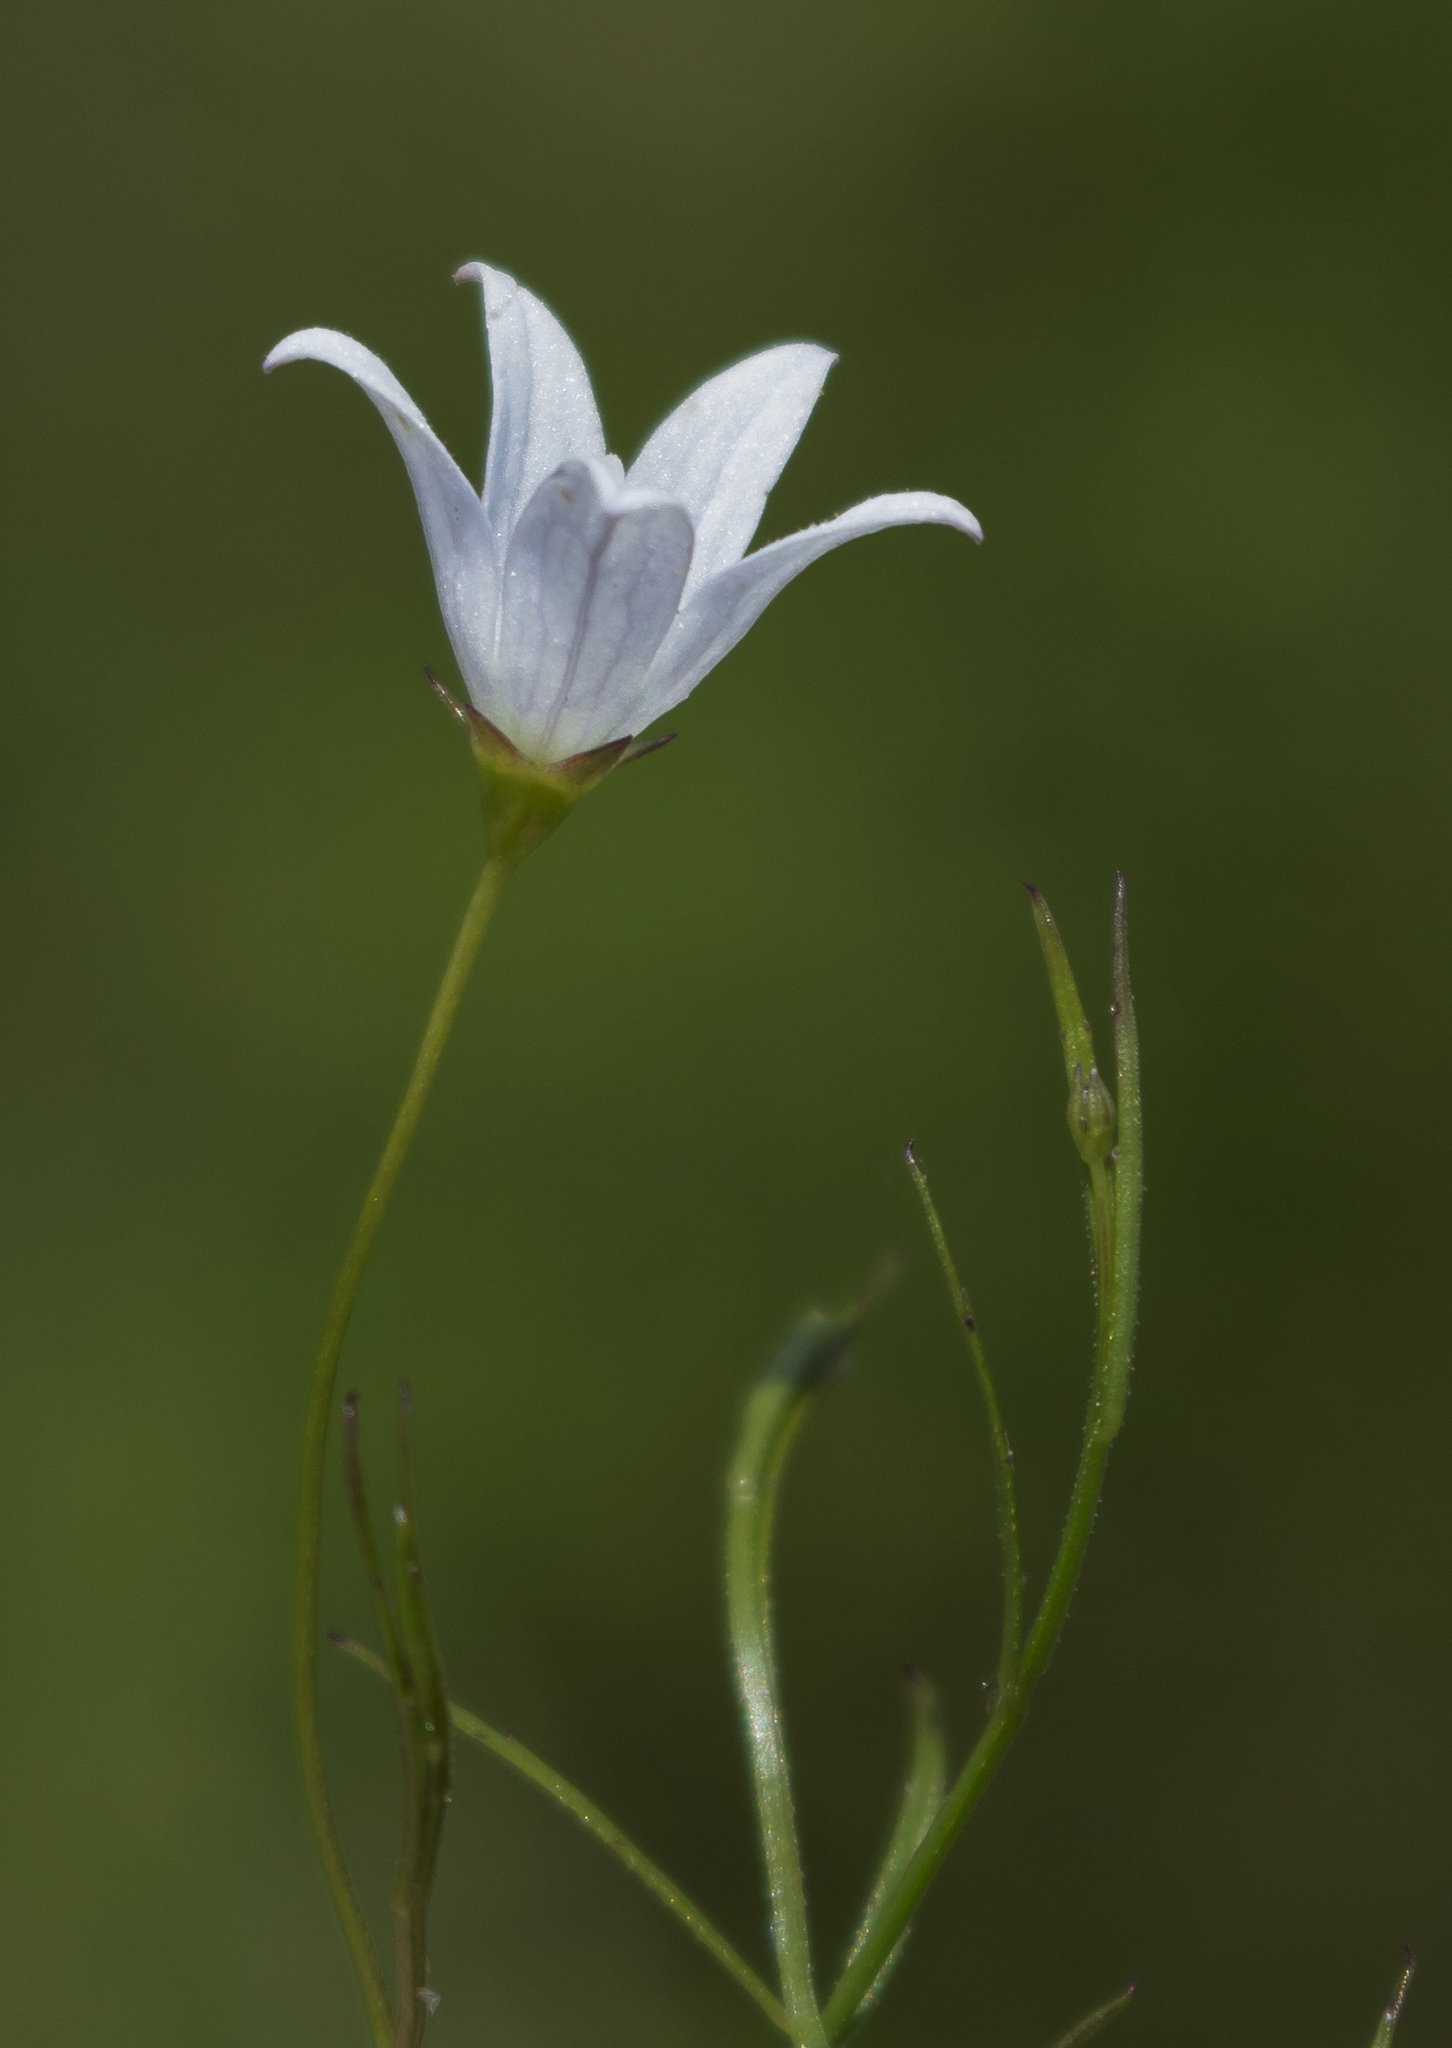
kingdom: Plantae
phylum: Tracheophyta
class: Magnoliopsida
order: Asterales
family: Campanulaceae
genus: Palustricodon
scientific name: Palustricodon aparinoides
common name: Bedstraw bellflower
